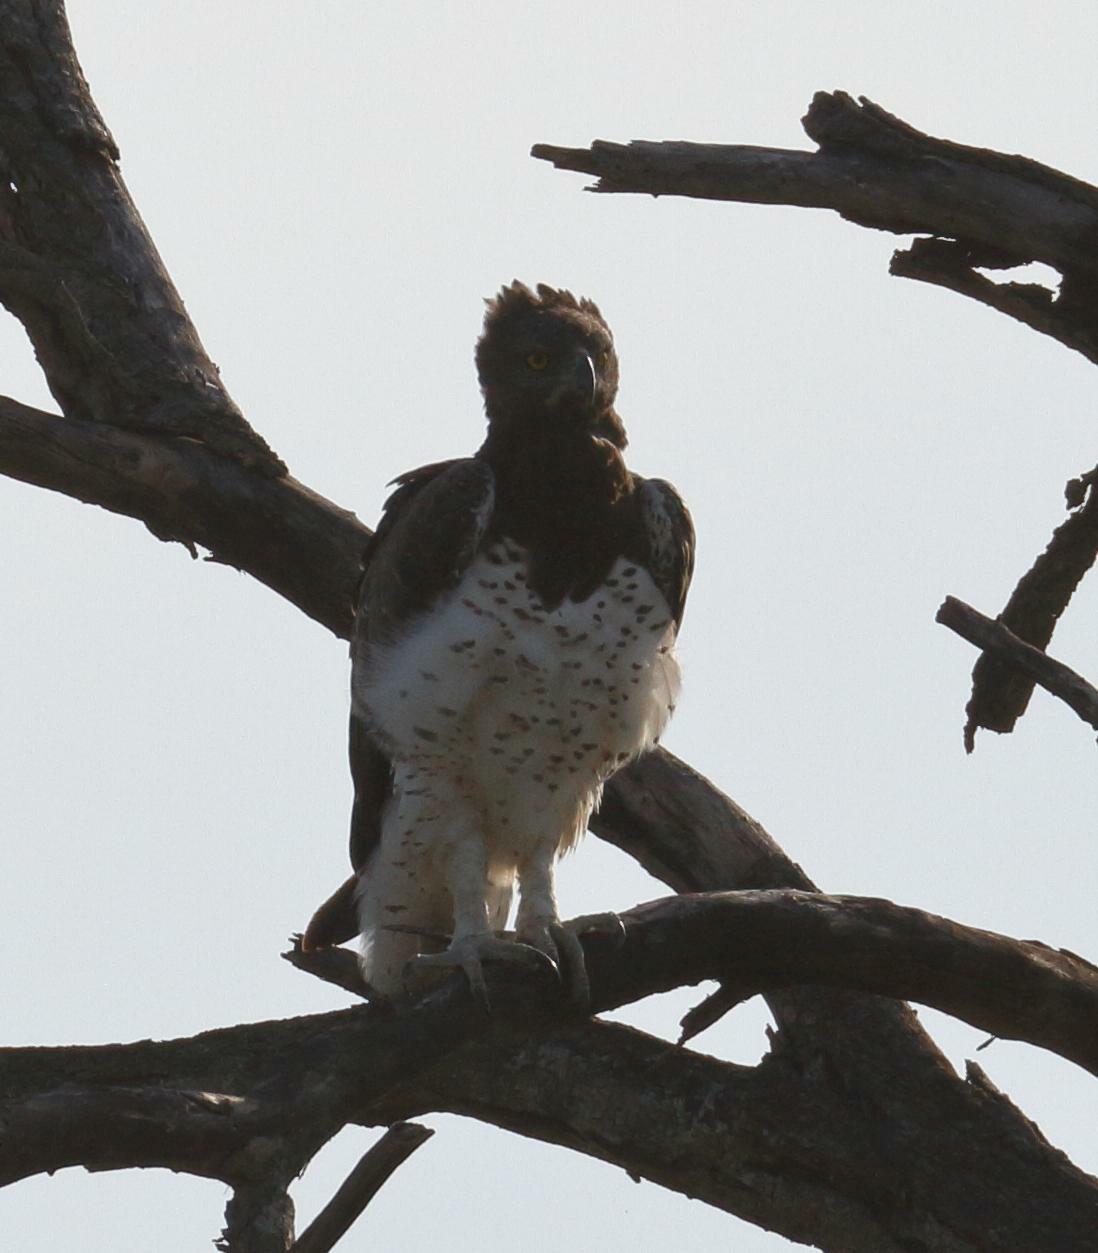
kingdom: Animalia
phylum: Chordata
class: Aves
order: Accipitriformes
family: Accipitridae
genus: Polemaetus
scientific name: Polemaetus bellicosus
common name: Martial eagle
